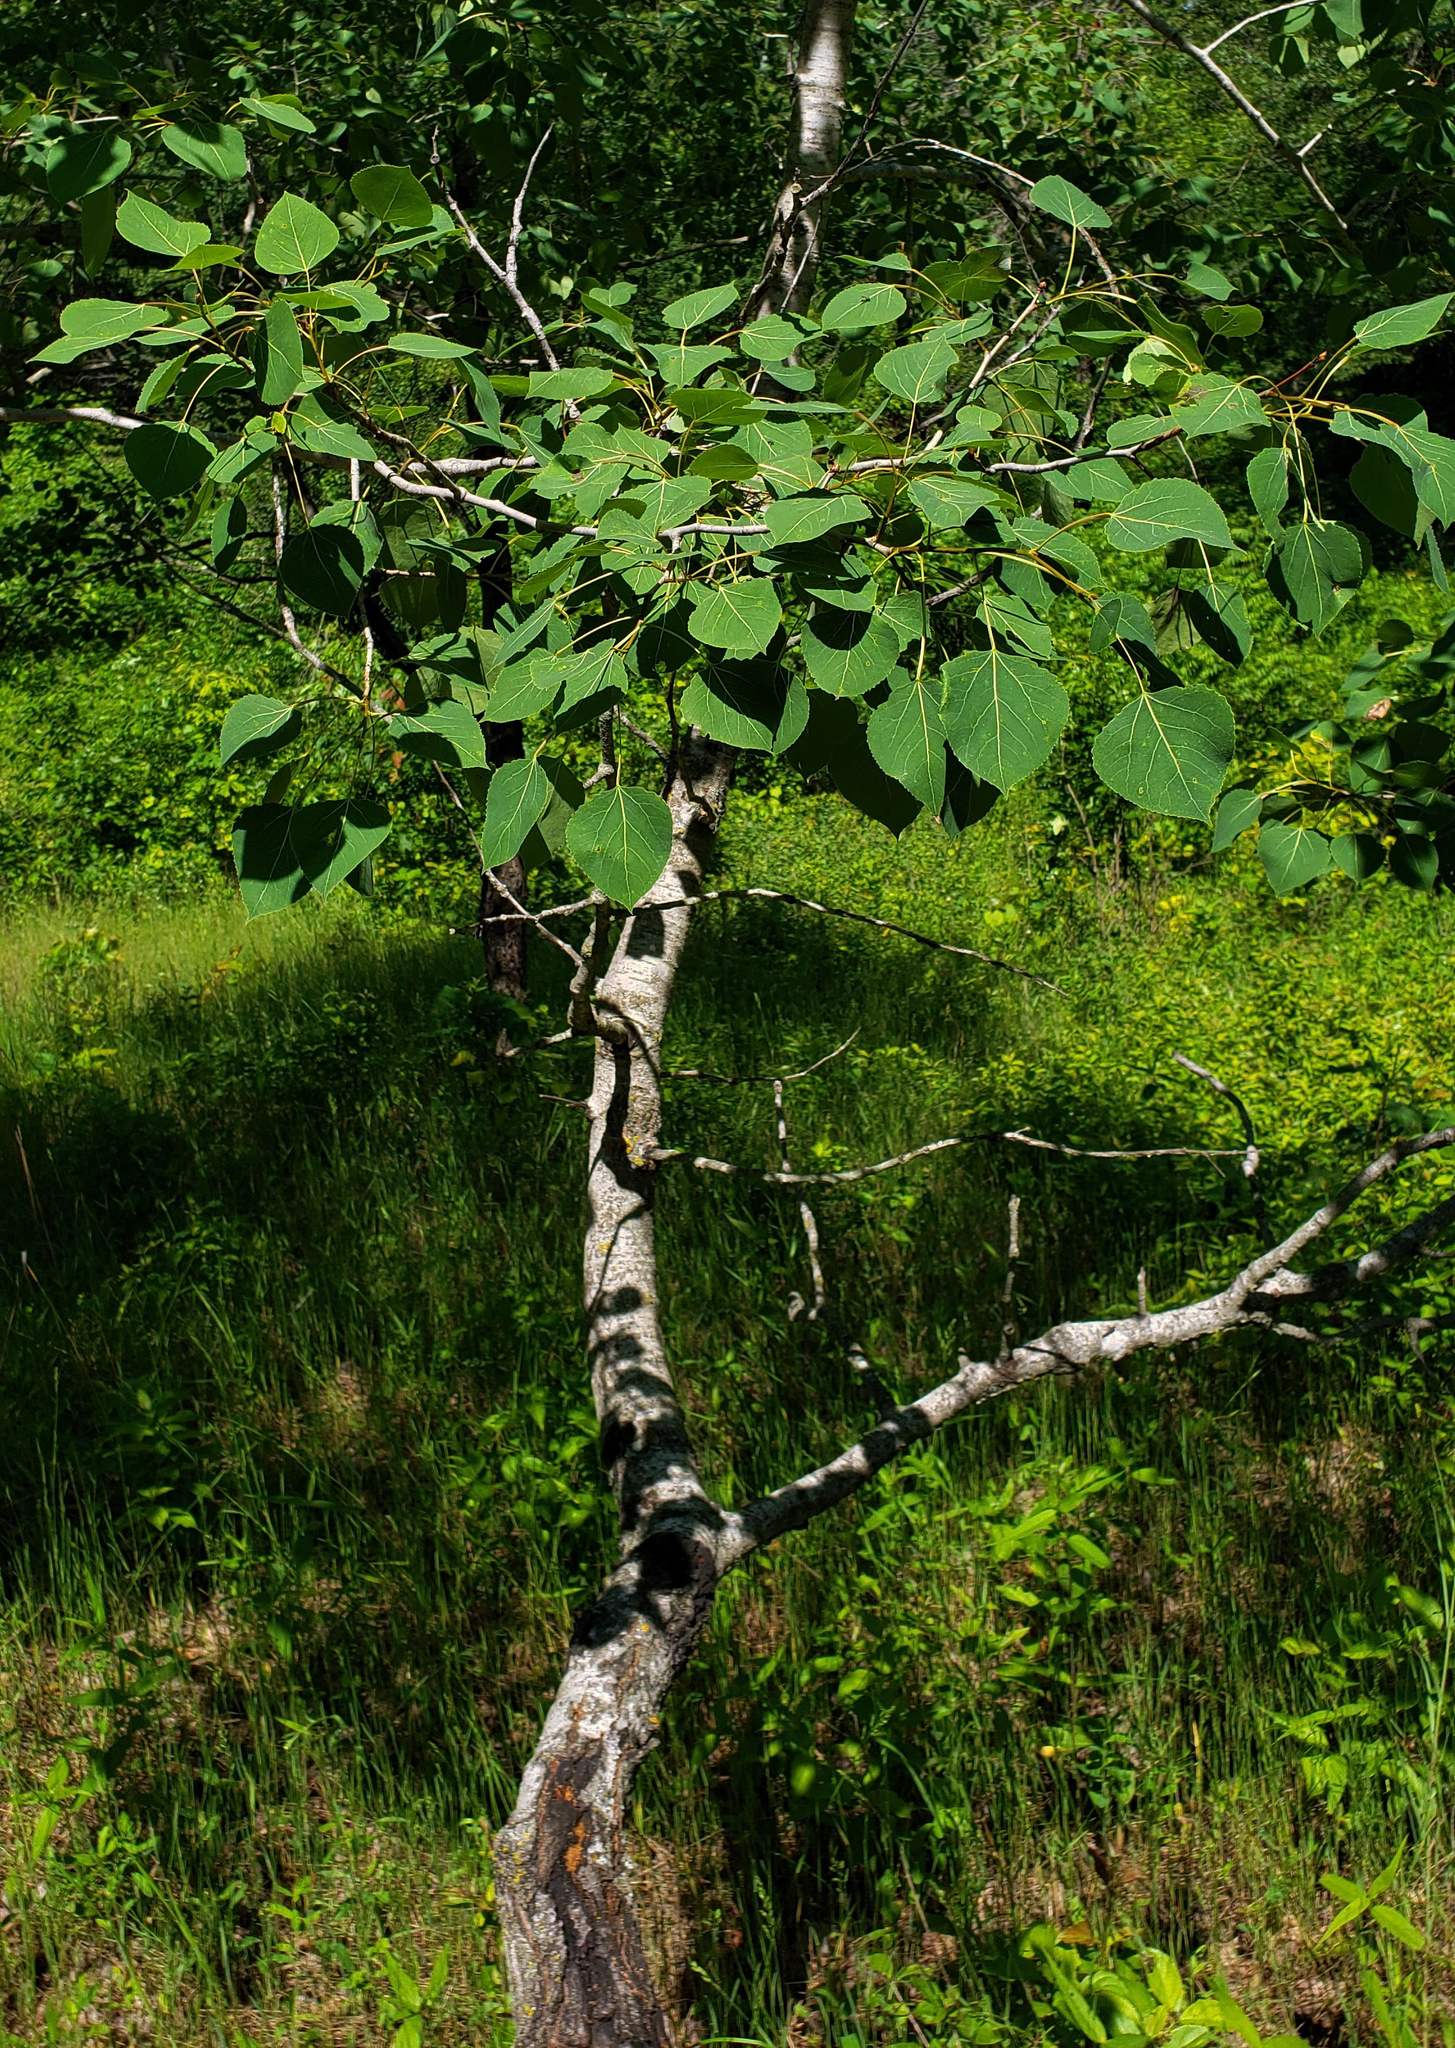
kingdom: Plantae
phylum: Tracheophyta
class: Magnoliopsida
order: Malpighiales
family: Salicaceae
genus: Populus
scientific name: Populus tremuloides
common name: Quaking aspen
